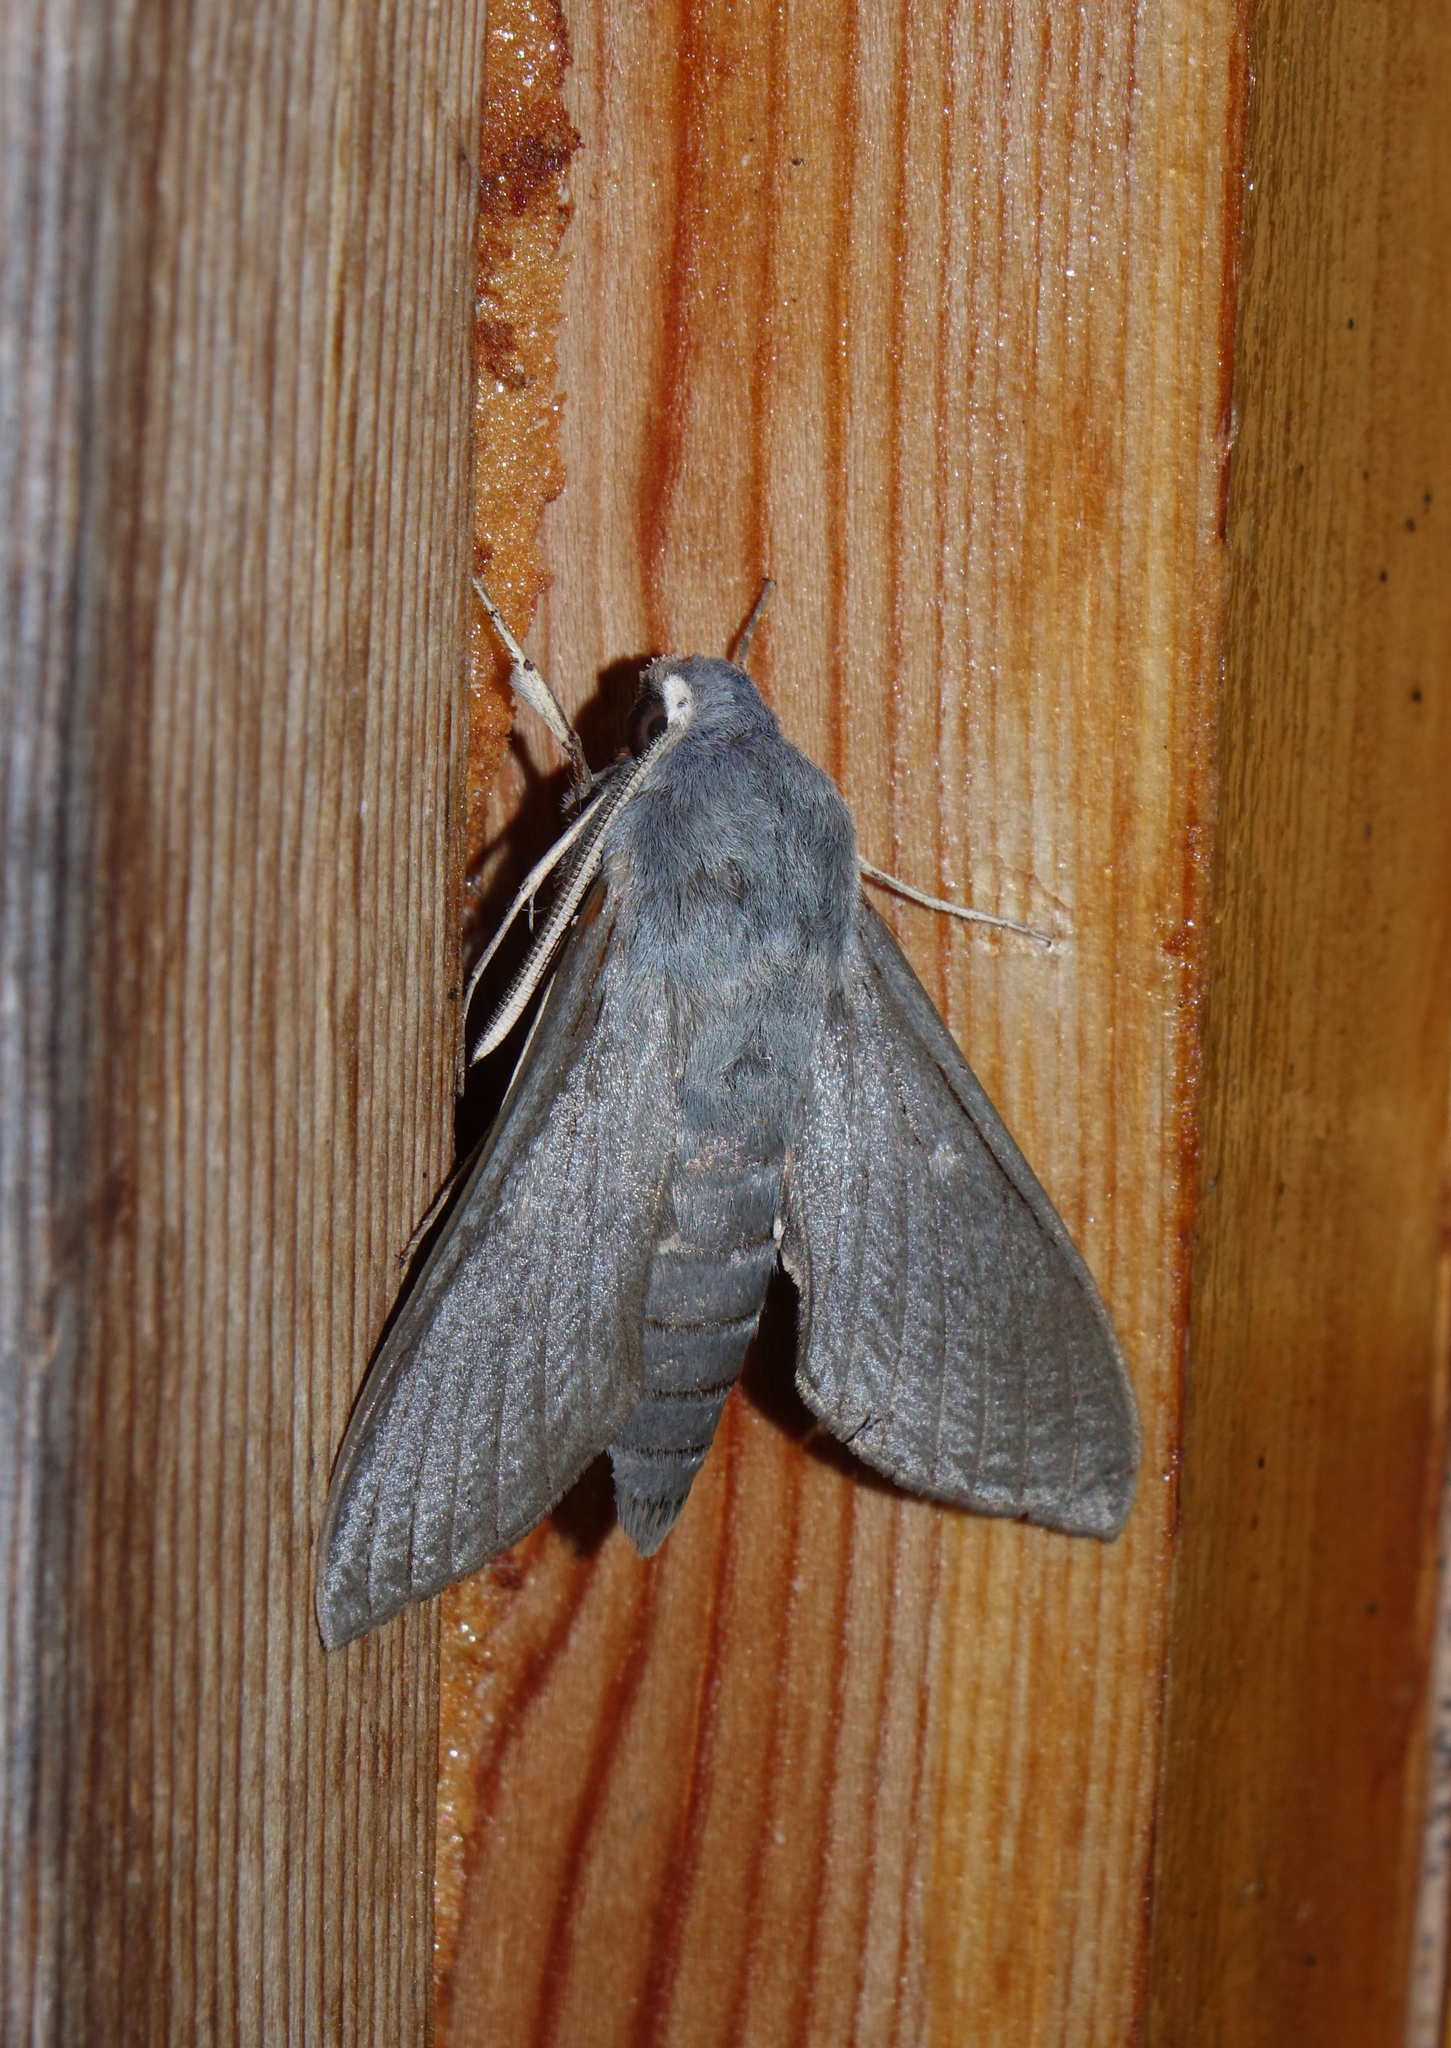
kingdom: Animalia
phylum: Arthropoda
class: Insecta
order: Lepidoptera
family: Sphingidae
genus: Hyles
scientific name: Hyles vespertilio
